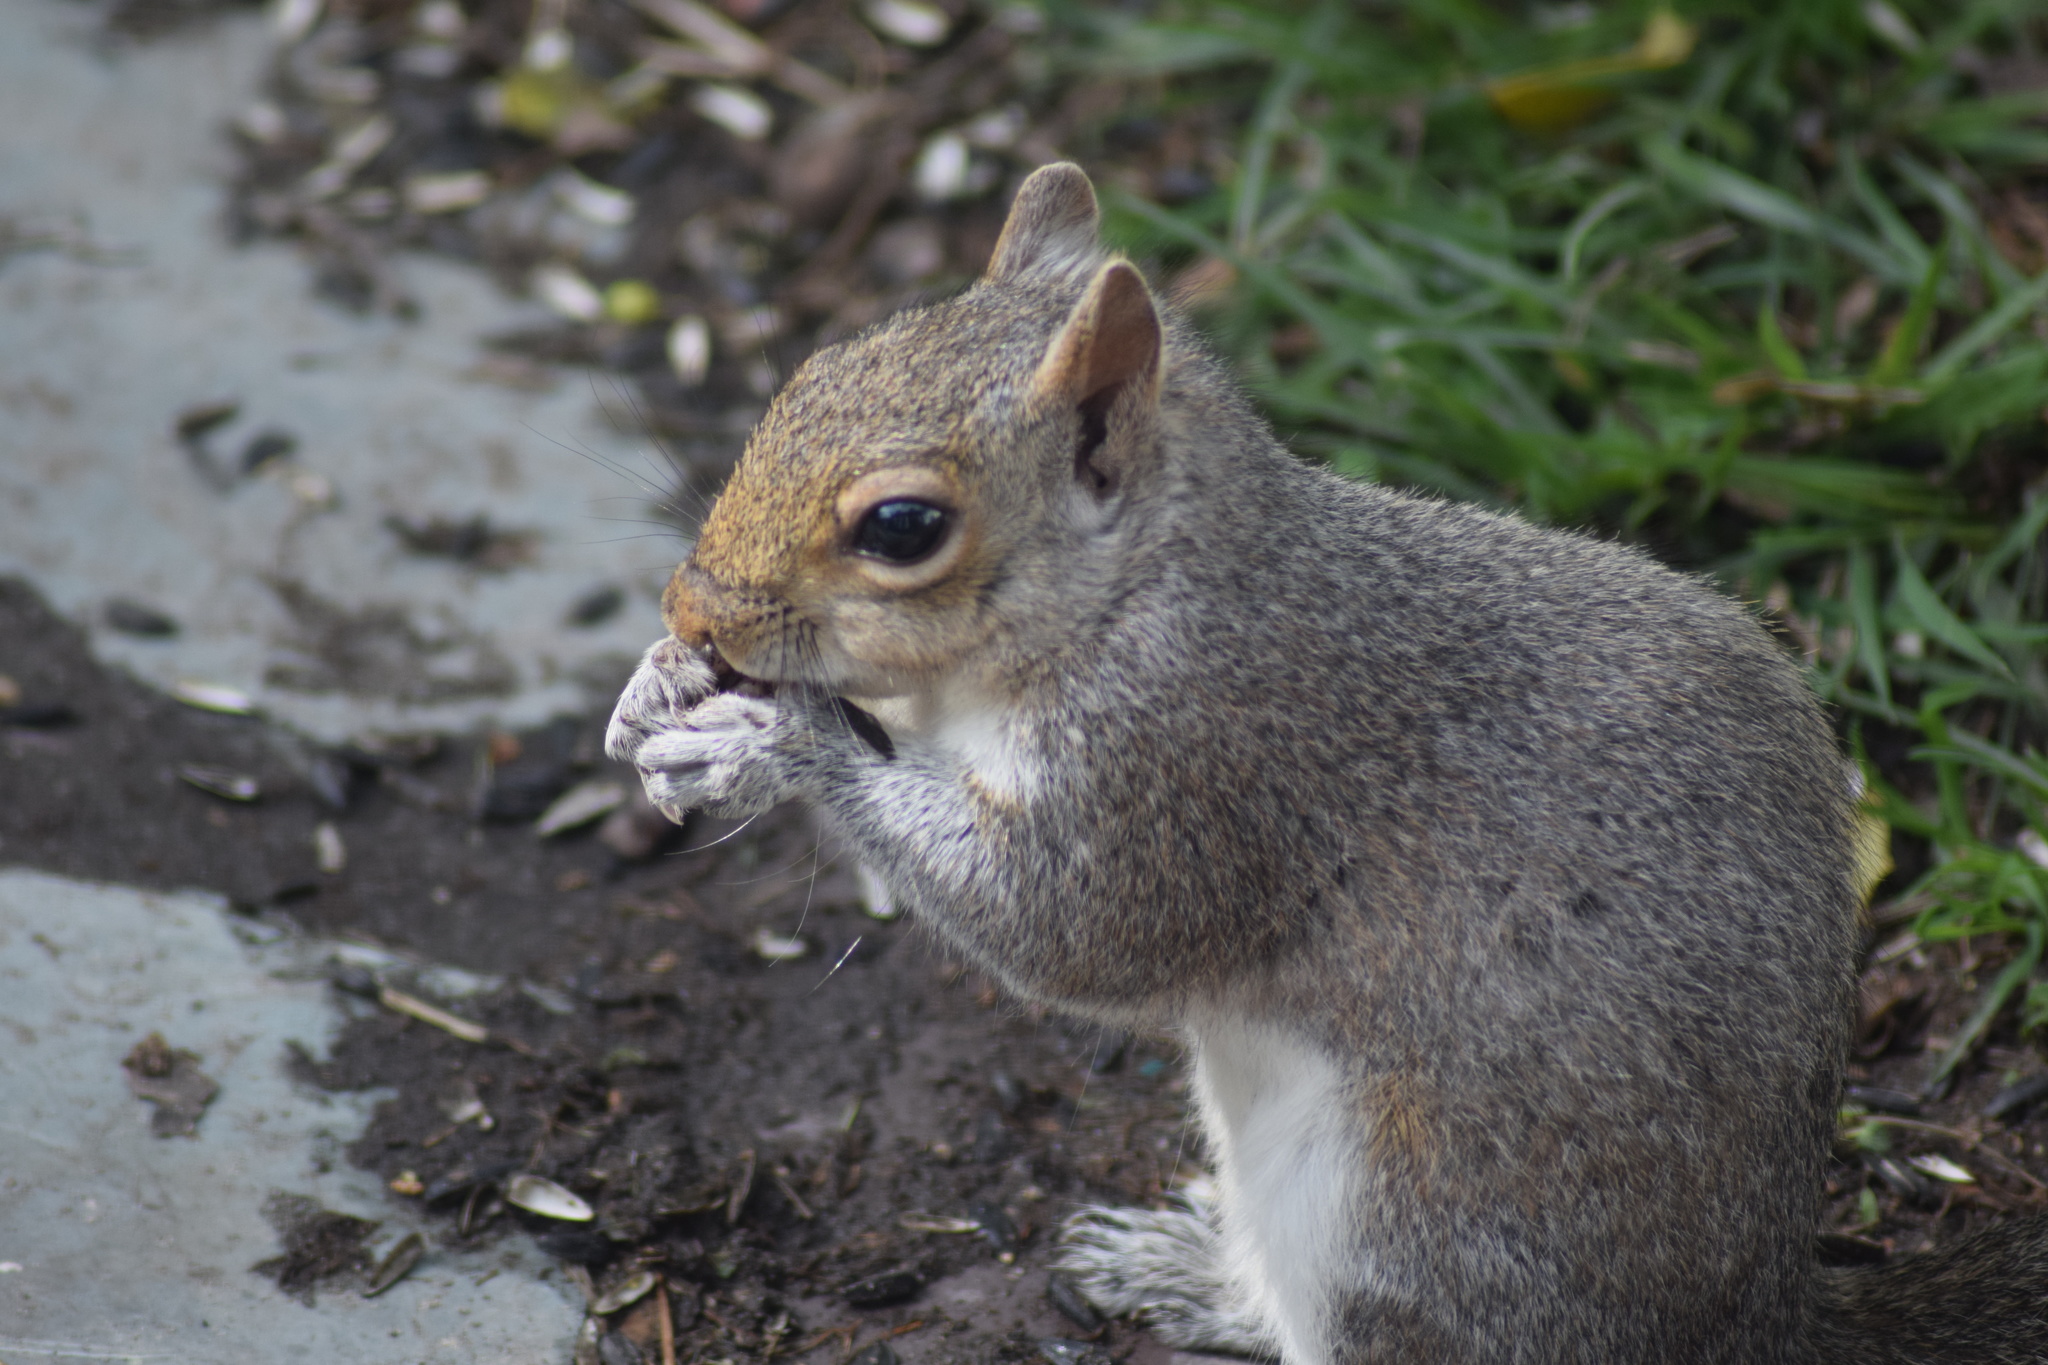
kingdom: Animalia
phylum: Chordata
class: Mammalia
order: Rodentia
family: Sciuridae
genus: Sciurus
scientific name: Sciurus carolinensis
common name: Eastern gray squirrel
